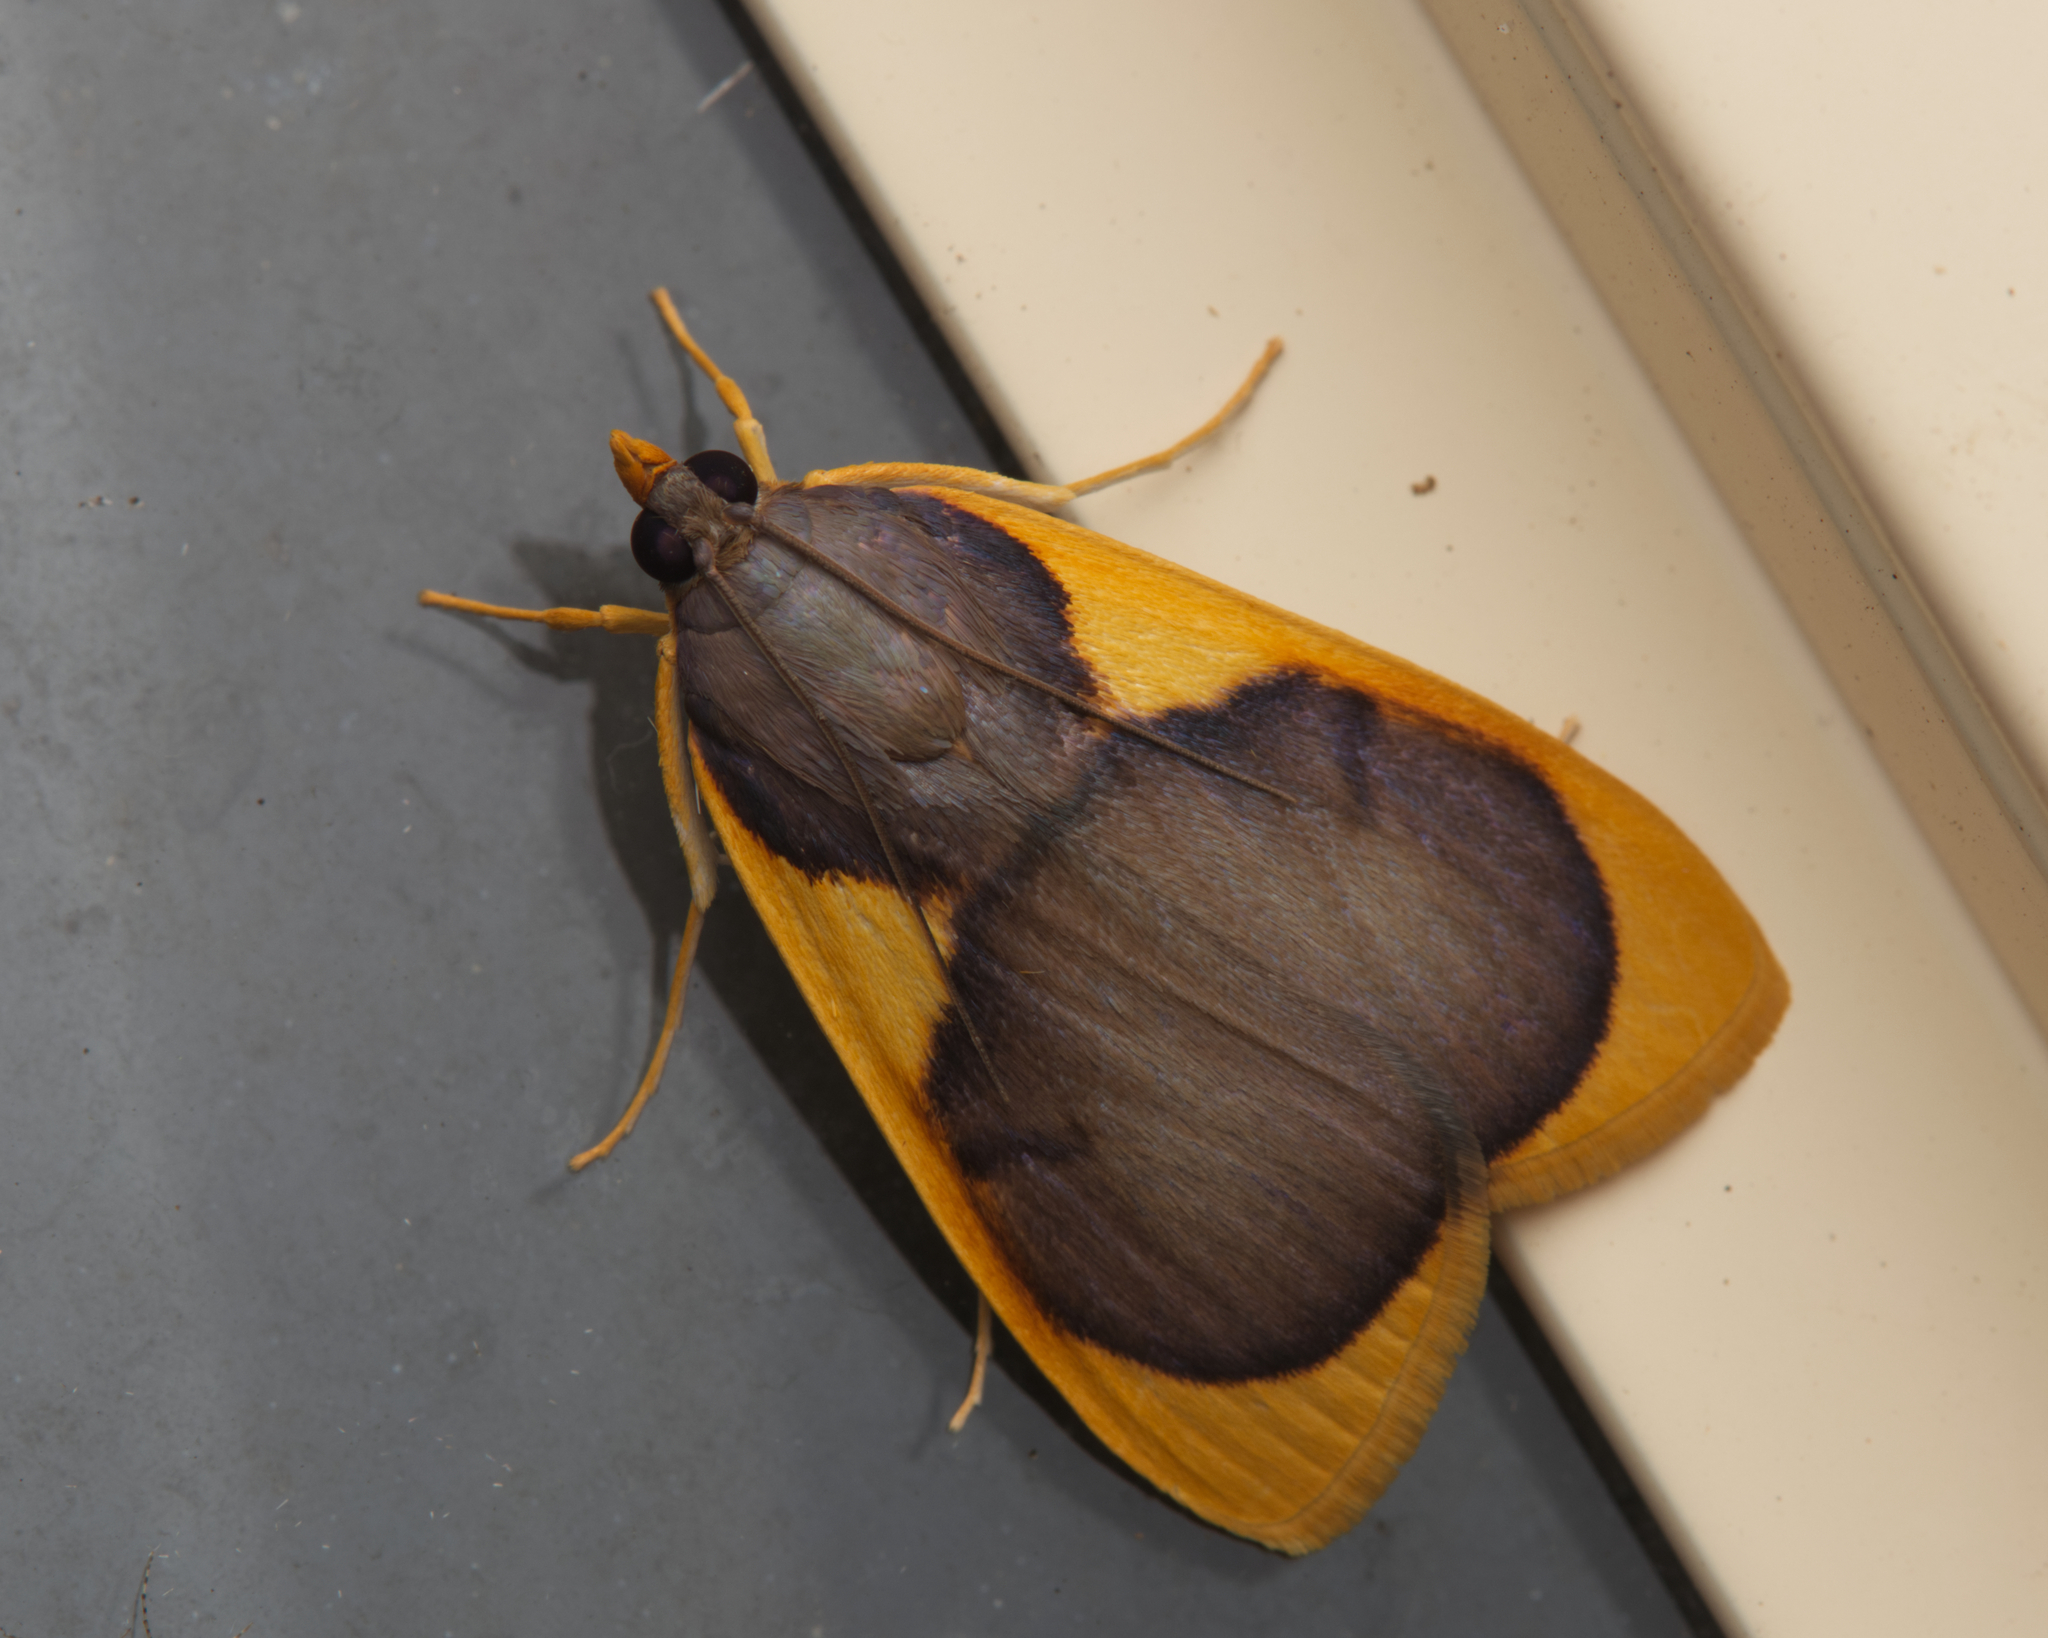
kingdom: Animalia
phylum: Arthropoda
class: Insecta
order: Lepidoptera
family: Crambidae
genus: Prooedema
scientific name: Prooedema inscisalis
